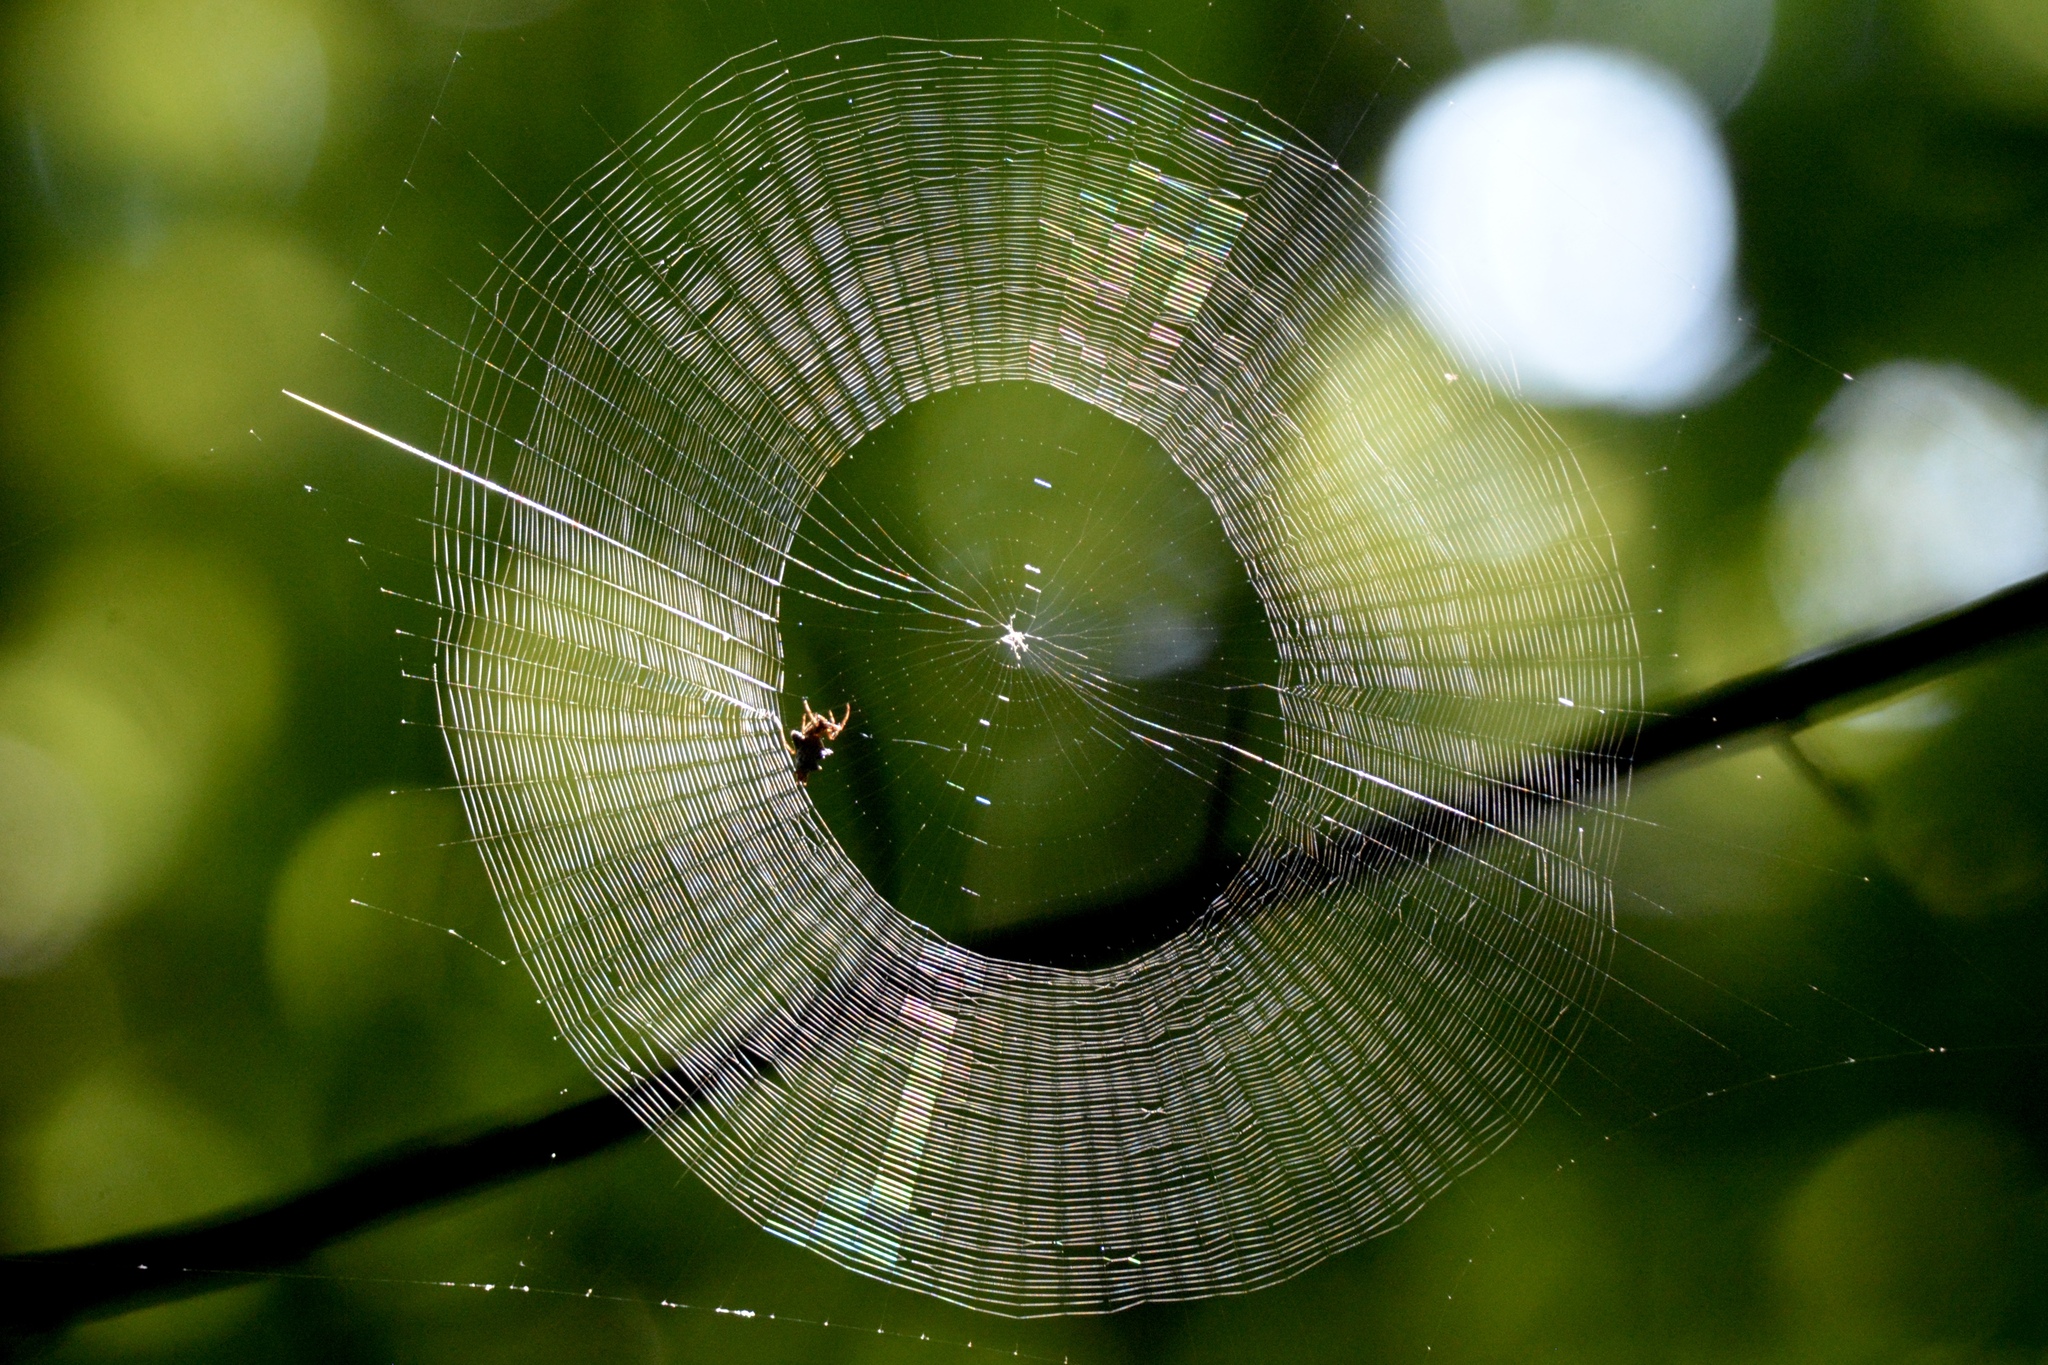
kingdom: Animalia
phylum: Arthropoda
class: Arachnida
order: Araneae
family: Araneidae
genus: Micrathena
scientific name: Micrathena gracilis
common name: Orb weavers
